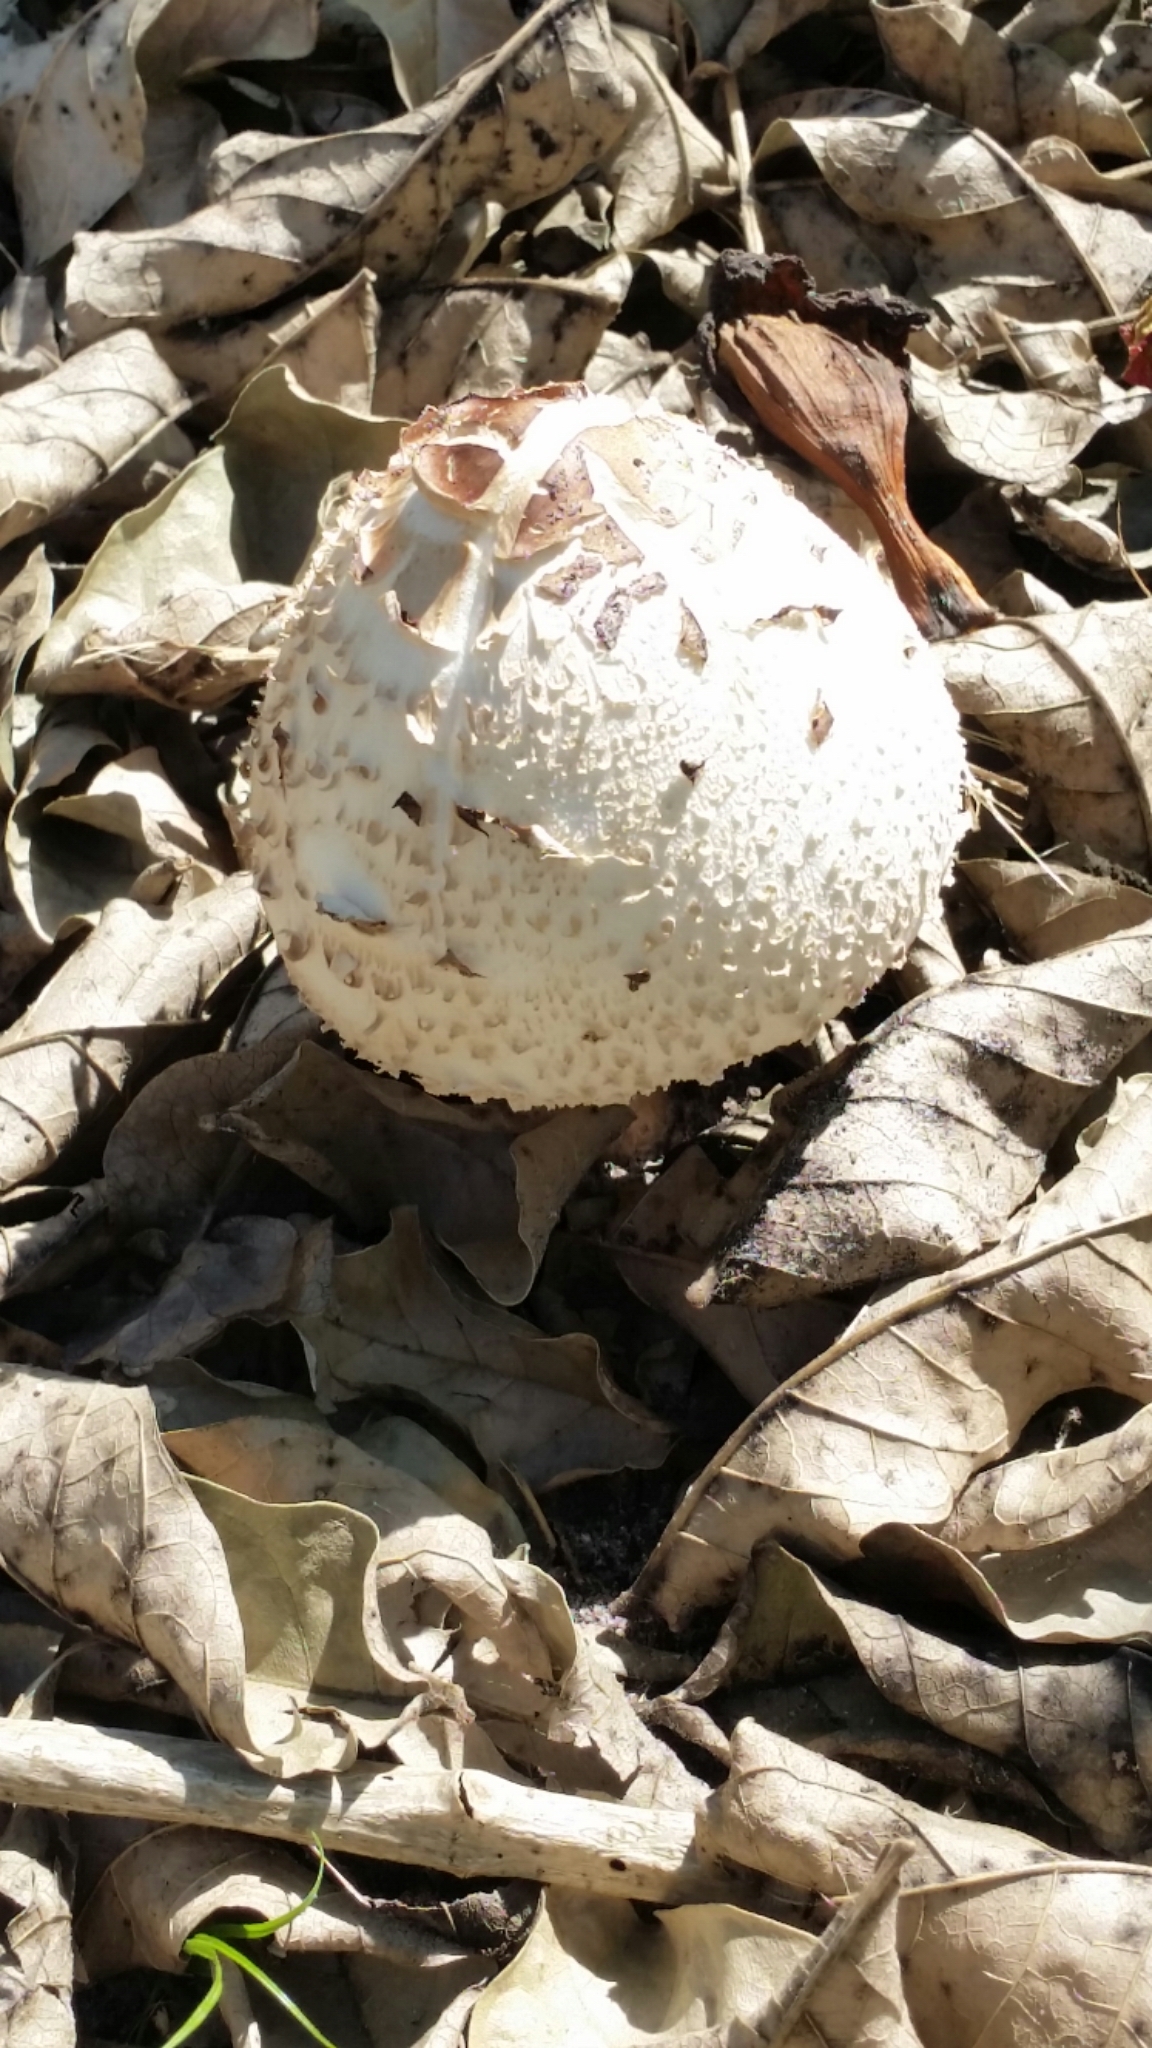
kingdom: Fungi
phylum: Basidiomycota
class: Agaricomycetes
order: Agaricales
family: Lycoperdaceae
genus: Bovistella
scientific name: Bovistella utriformis
